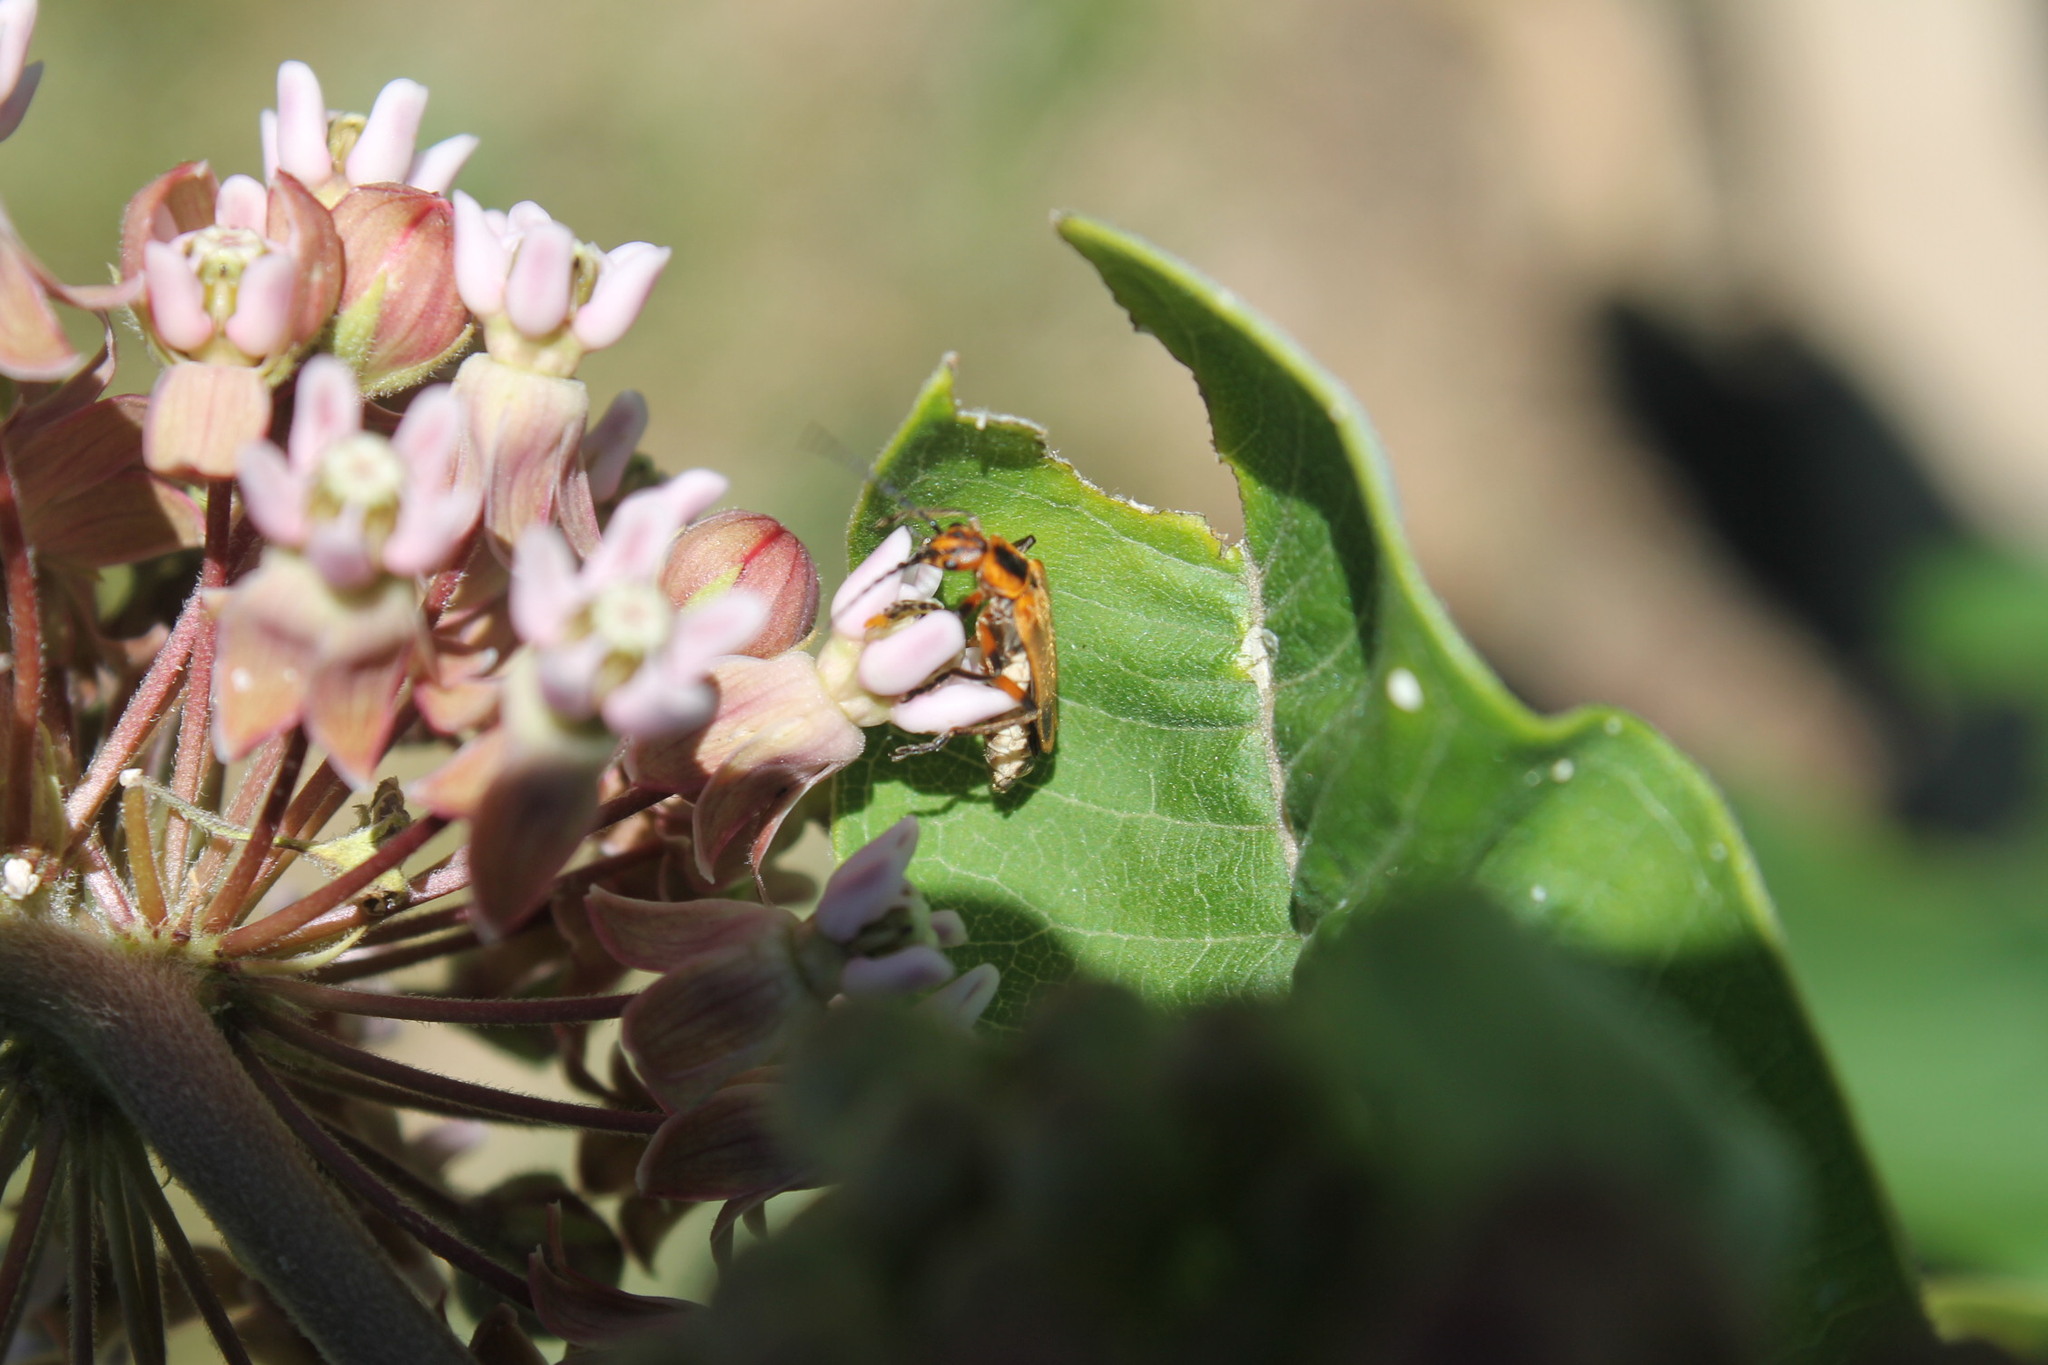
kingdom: Animalia
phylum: Arthropoda
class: Insecta
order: Coleoptera
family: Cantharidae
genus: Chauliognathus
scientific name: Chauliognathus marginatus
